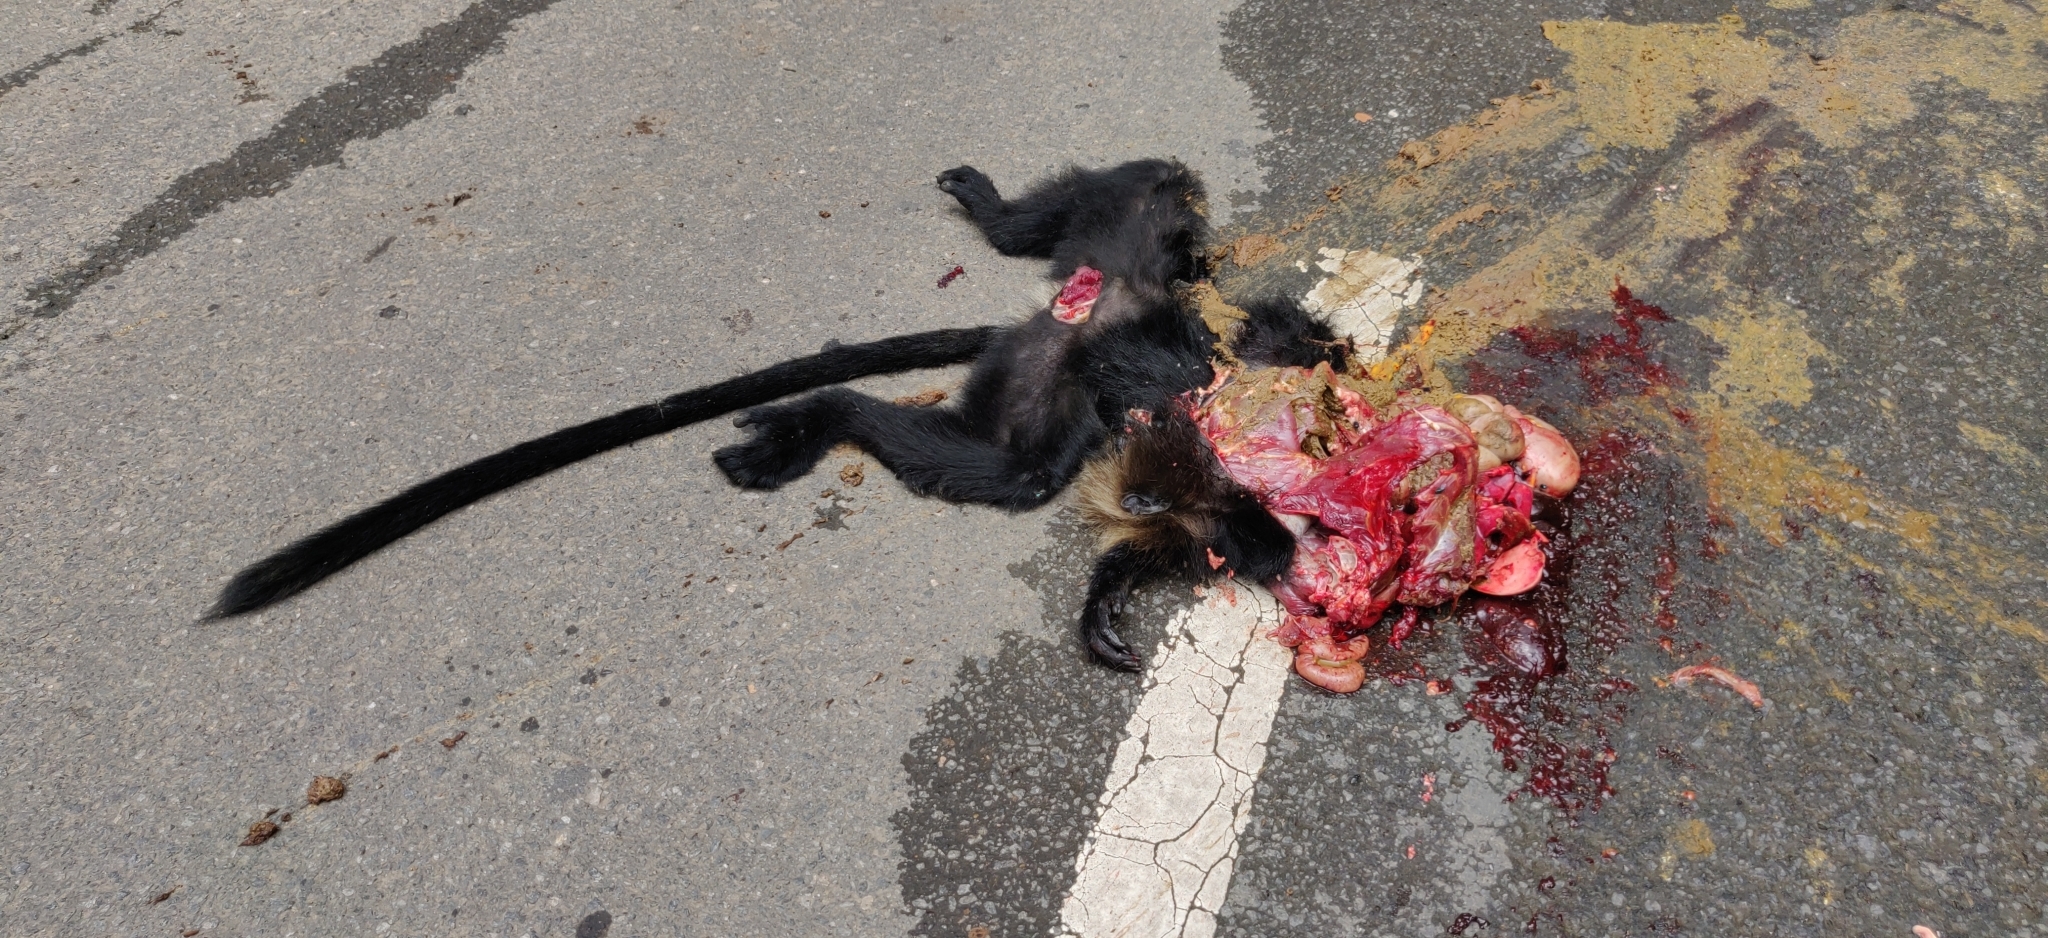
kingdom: Animalia
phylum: Chordata
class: Mammalia
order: Primates
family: Cercopithecidae
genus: Semnopithecus
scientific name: Semnopithecus johnii
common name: Nilgiri langur
